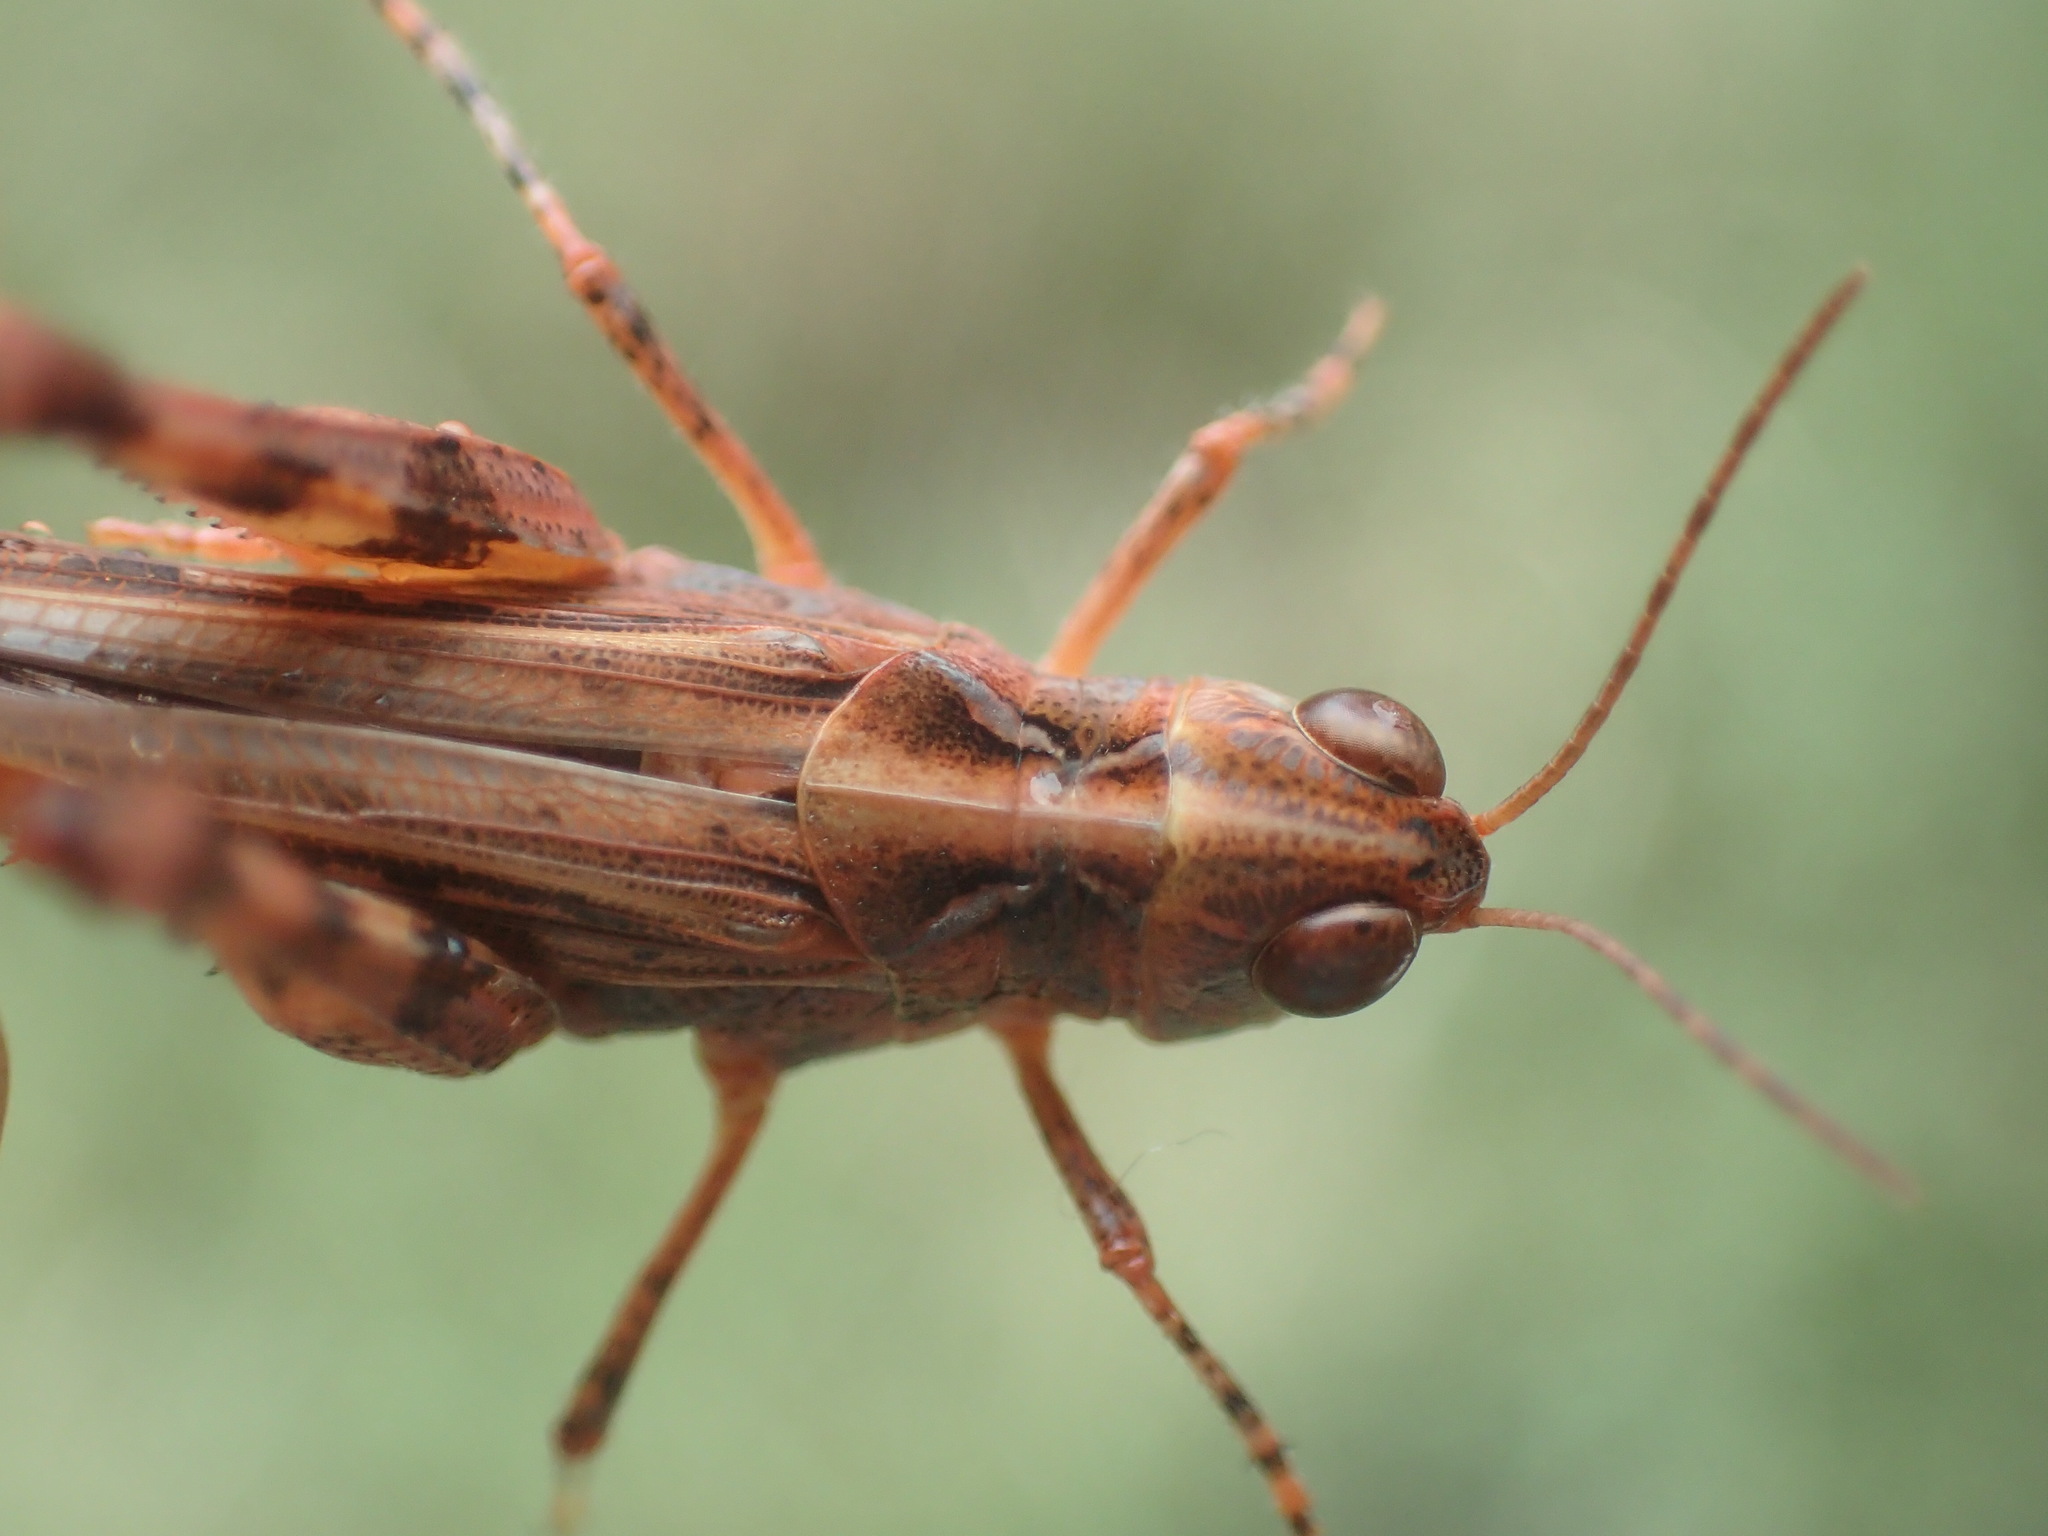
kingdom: Animalia
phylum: Arthropoda
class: Insecta
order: Orthoptera
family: Acrididae
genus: Austroicetes
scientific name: Austroicetes tricolor
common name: Northern austroicetes
